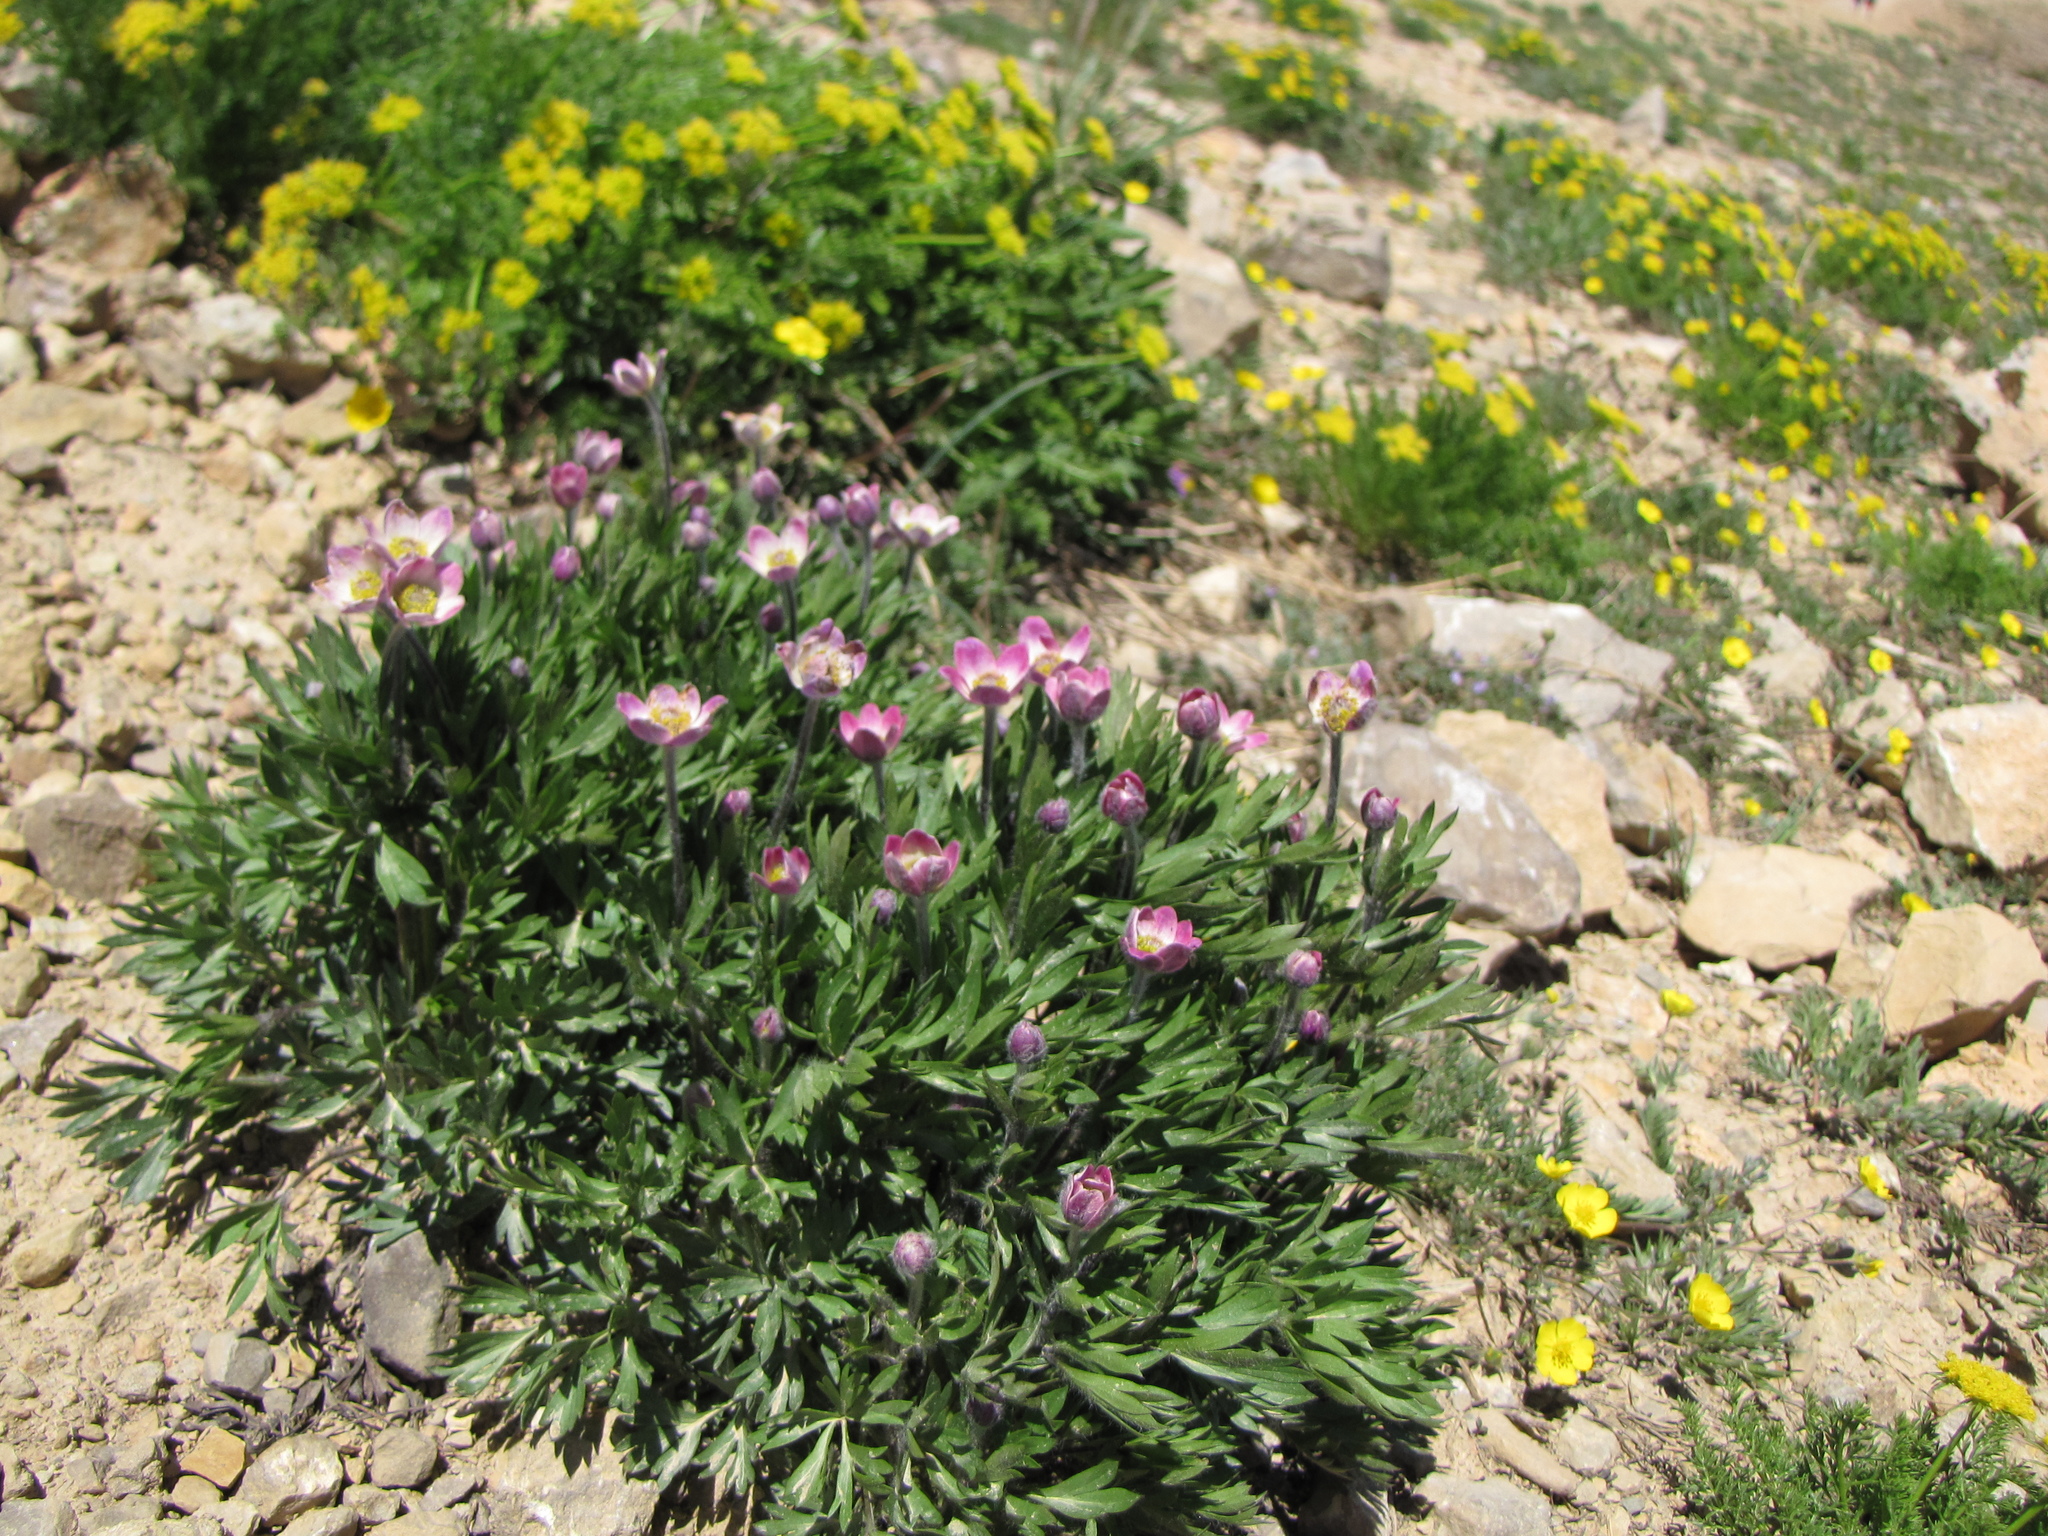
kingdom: Plantae
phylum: Tracheophyta
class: Magnoliopsida
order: Ranunculales
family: Ranunculaceae
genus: Anemone
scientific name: Anemone multifida
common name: Bird's-foot anemone
